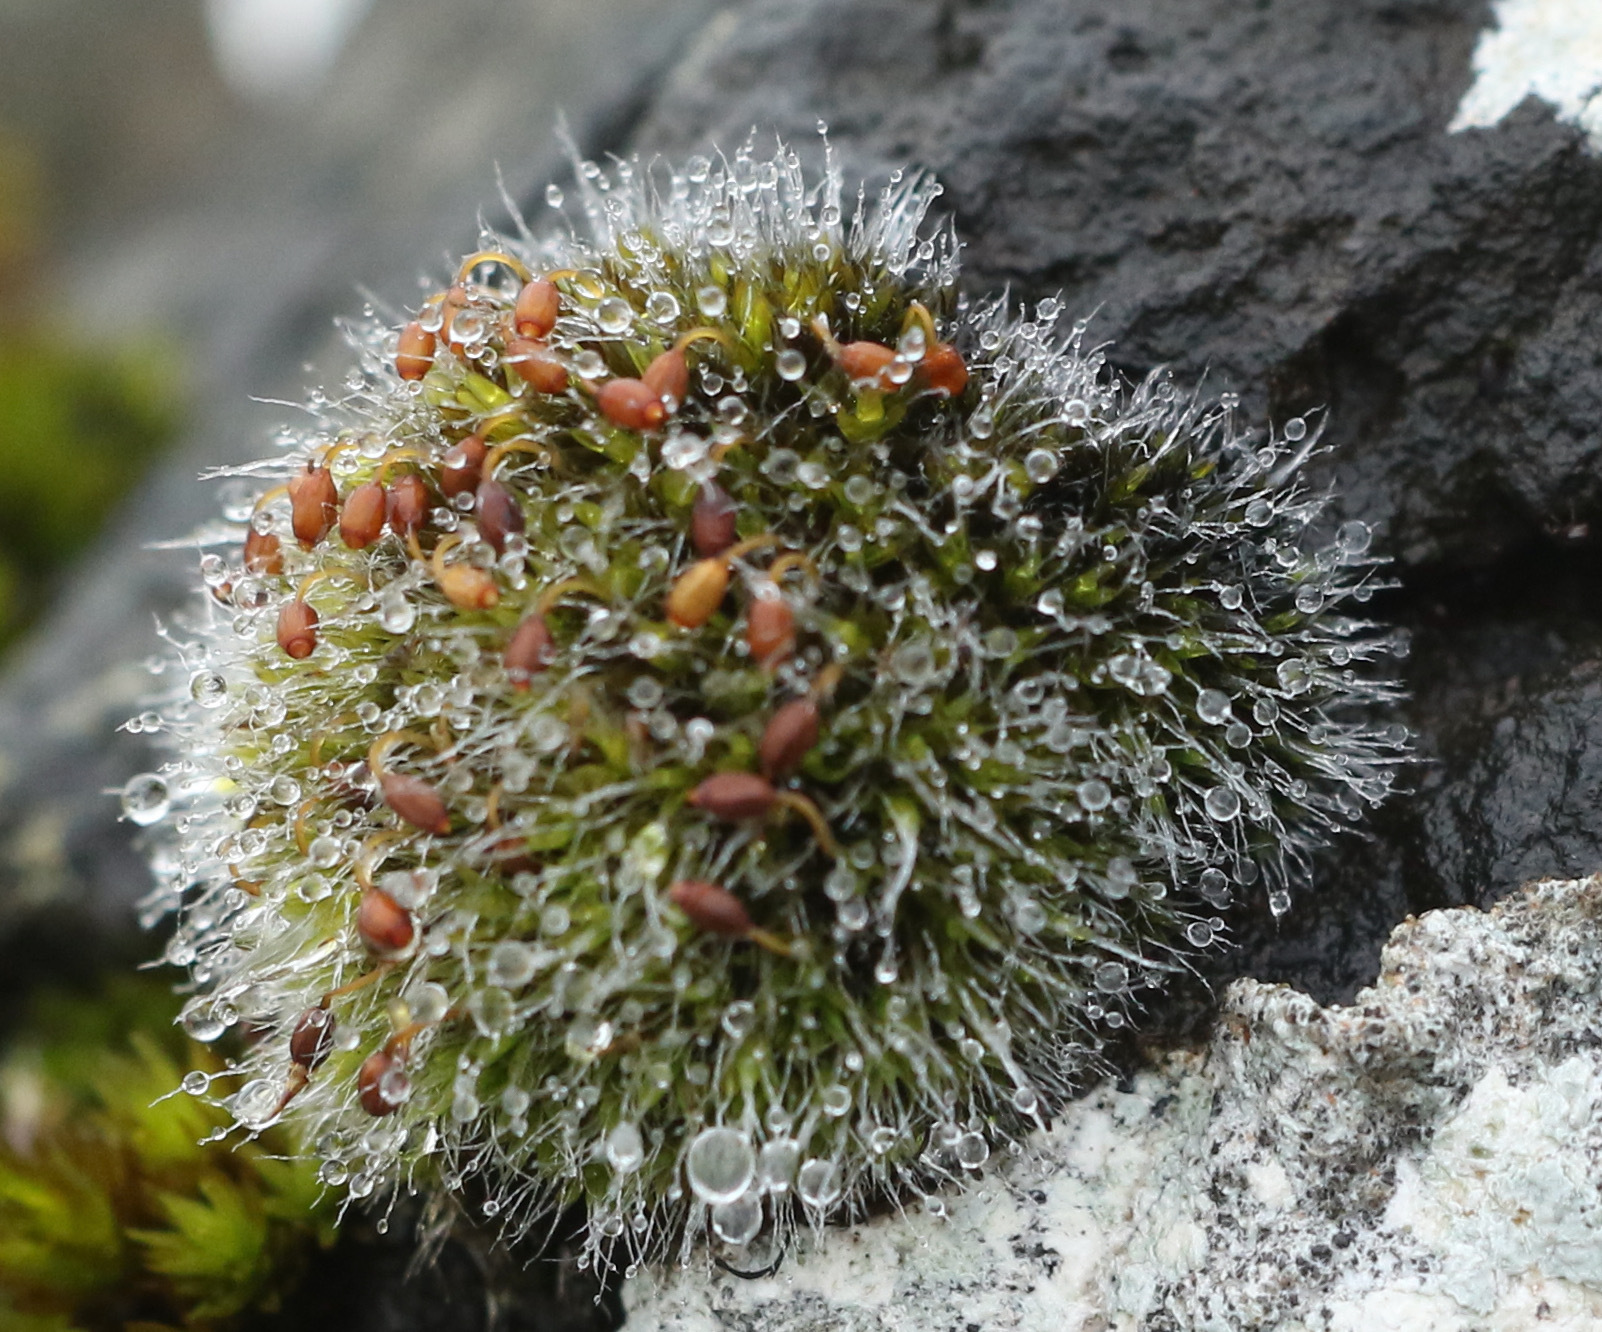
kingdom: Plantae
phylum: Bryophyta
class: Bryopsida
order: Grimmiales
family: Grimmiaceae
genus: Grimmia
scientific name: Grimmia pulvinata
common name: Grey-cushioned grimmia
